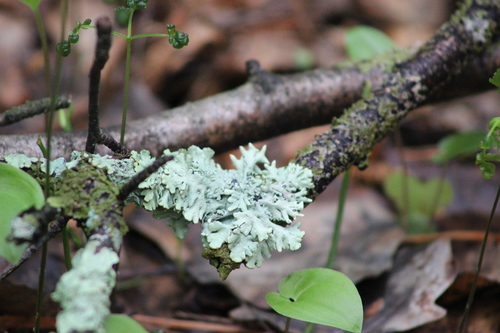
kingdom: Fungi
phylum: Ascomycota
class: Lecanoromycetes
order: Lecanorales
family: Parmeliaceae
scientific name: Parmeliaceae
